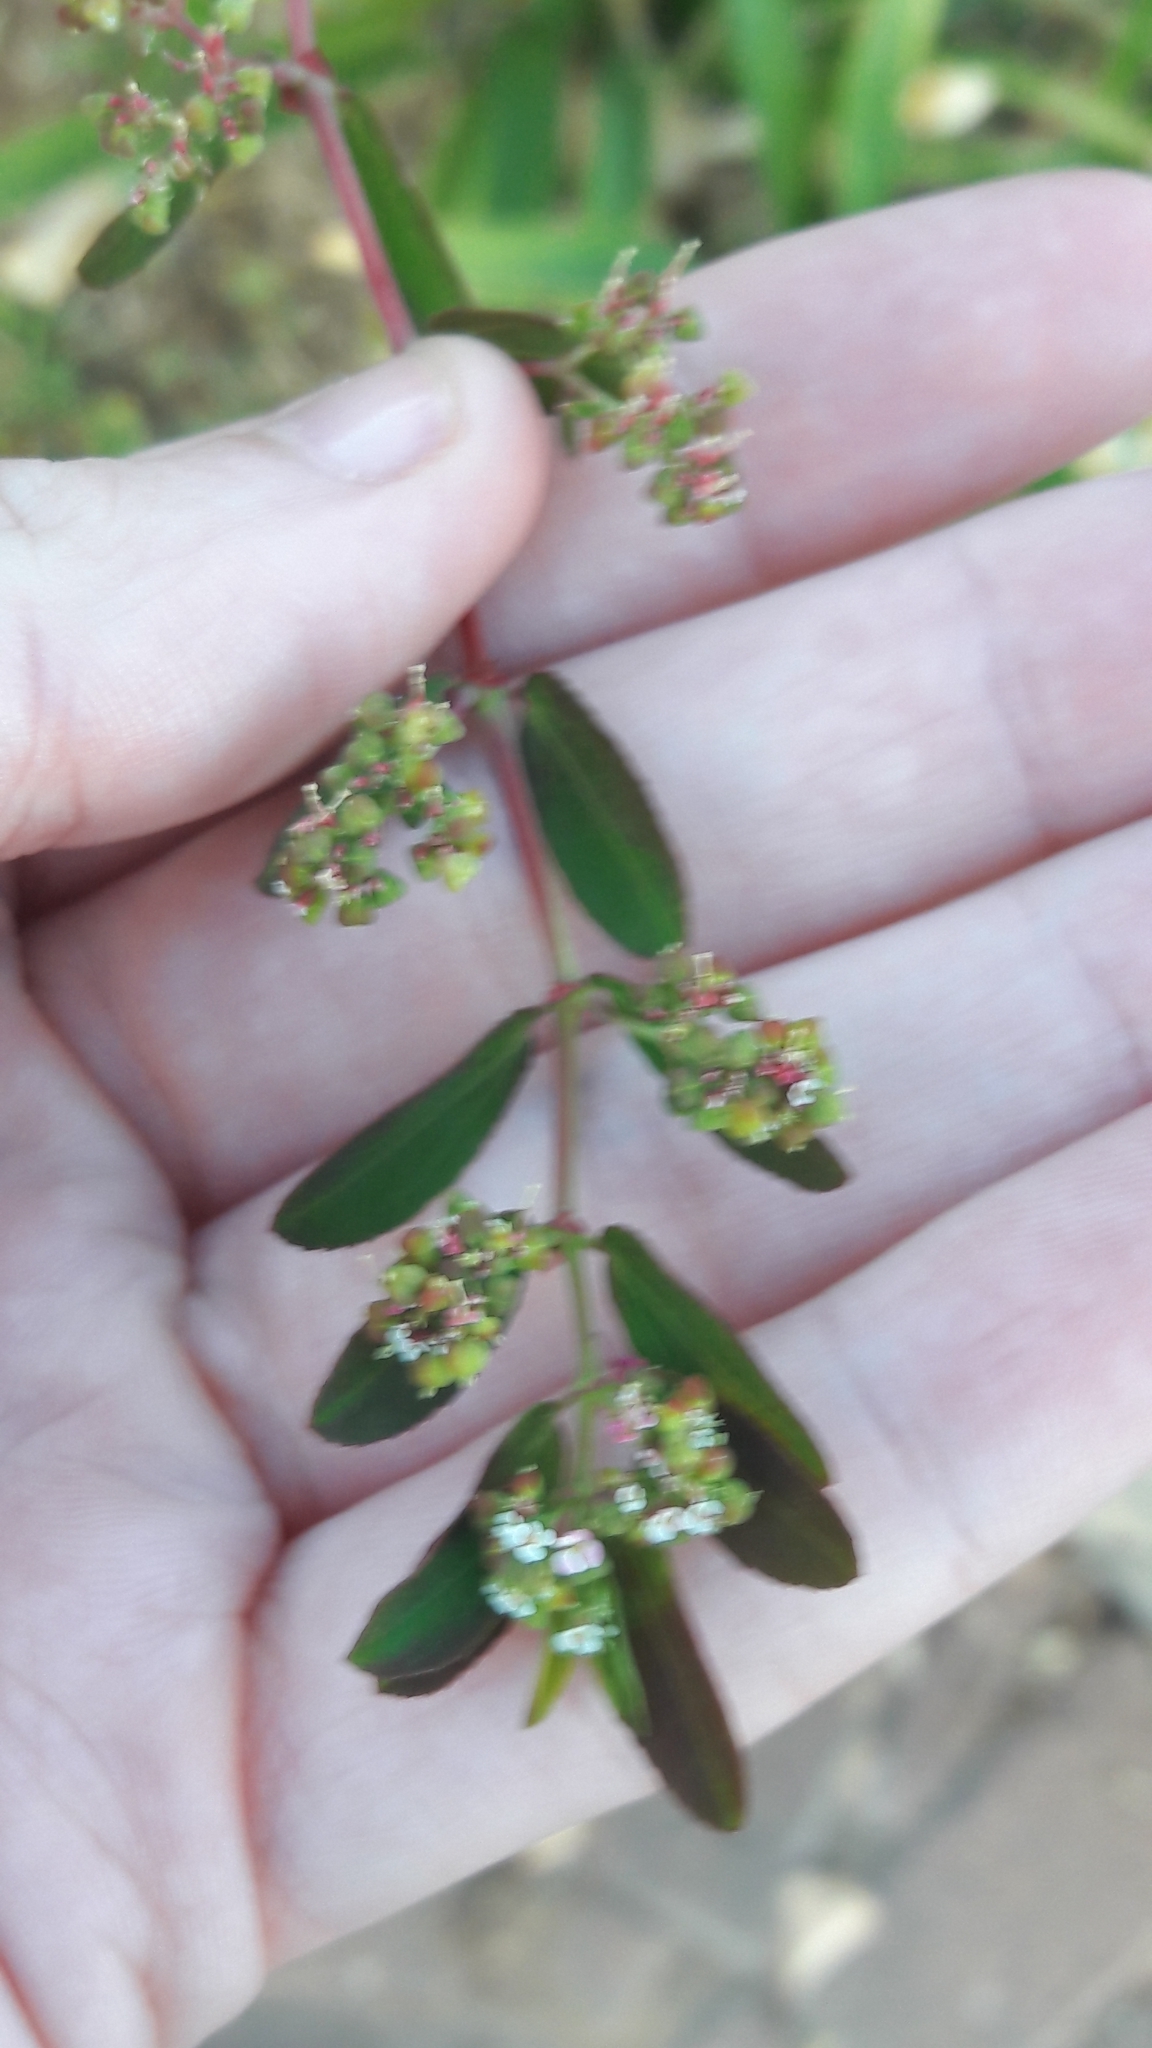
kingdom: Plantae
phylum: Tracheophyta
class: Magnoliopsida
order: Malpighiales
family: Euphorbiaceae
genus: Euphorbia
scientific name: Euphorbia hypericifolia
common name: Graceful sandmat
